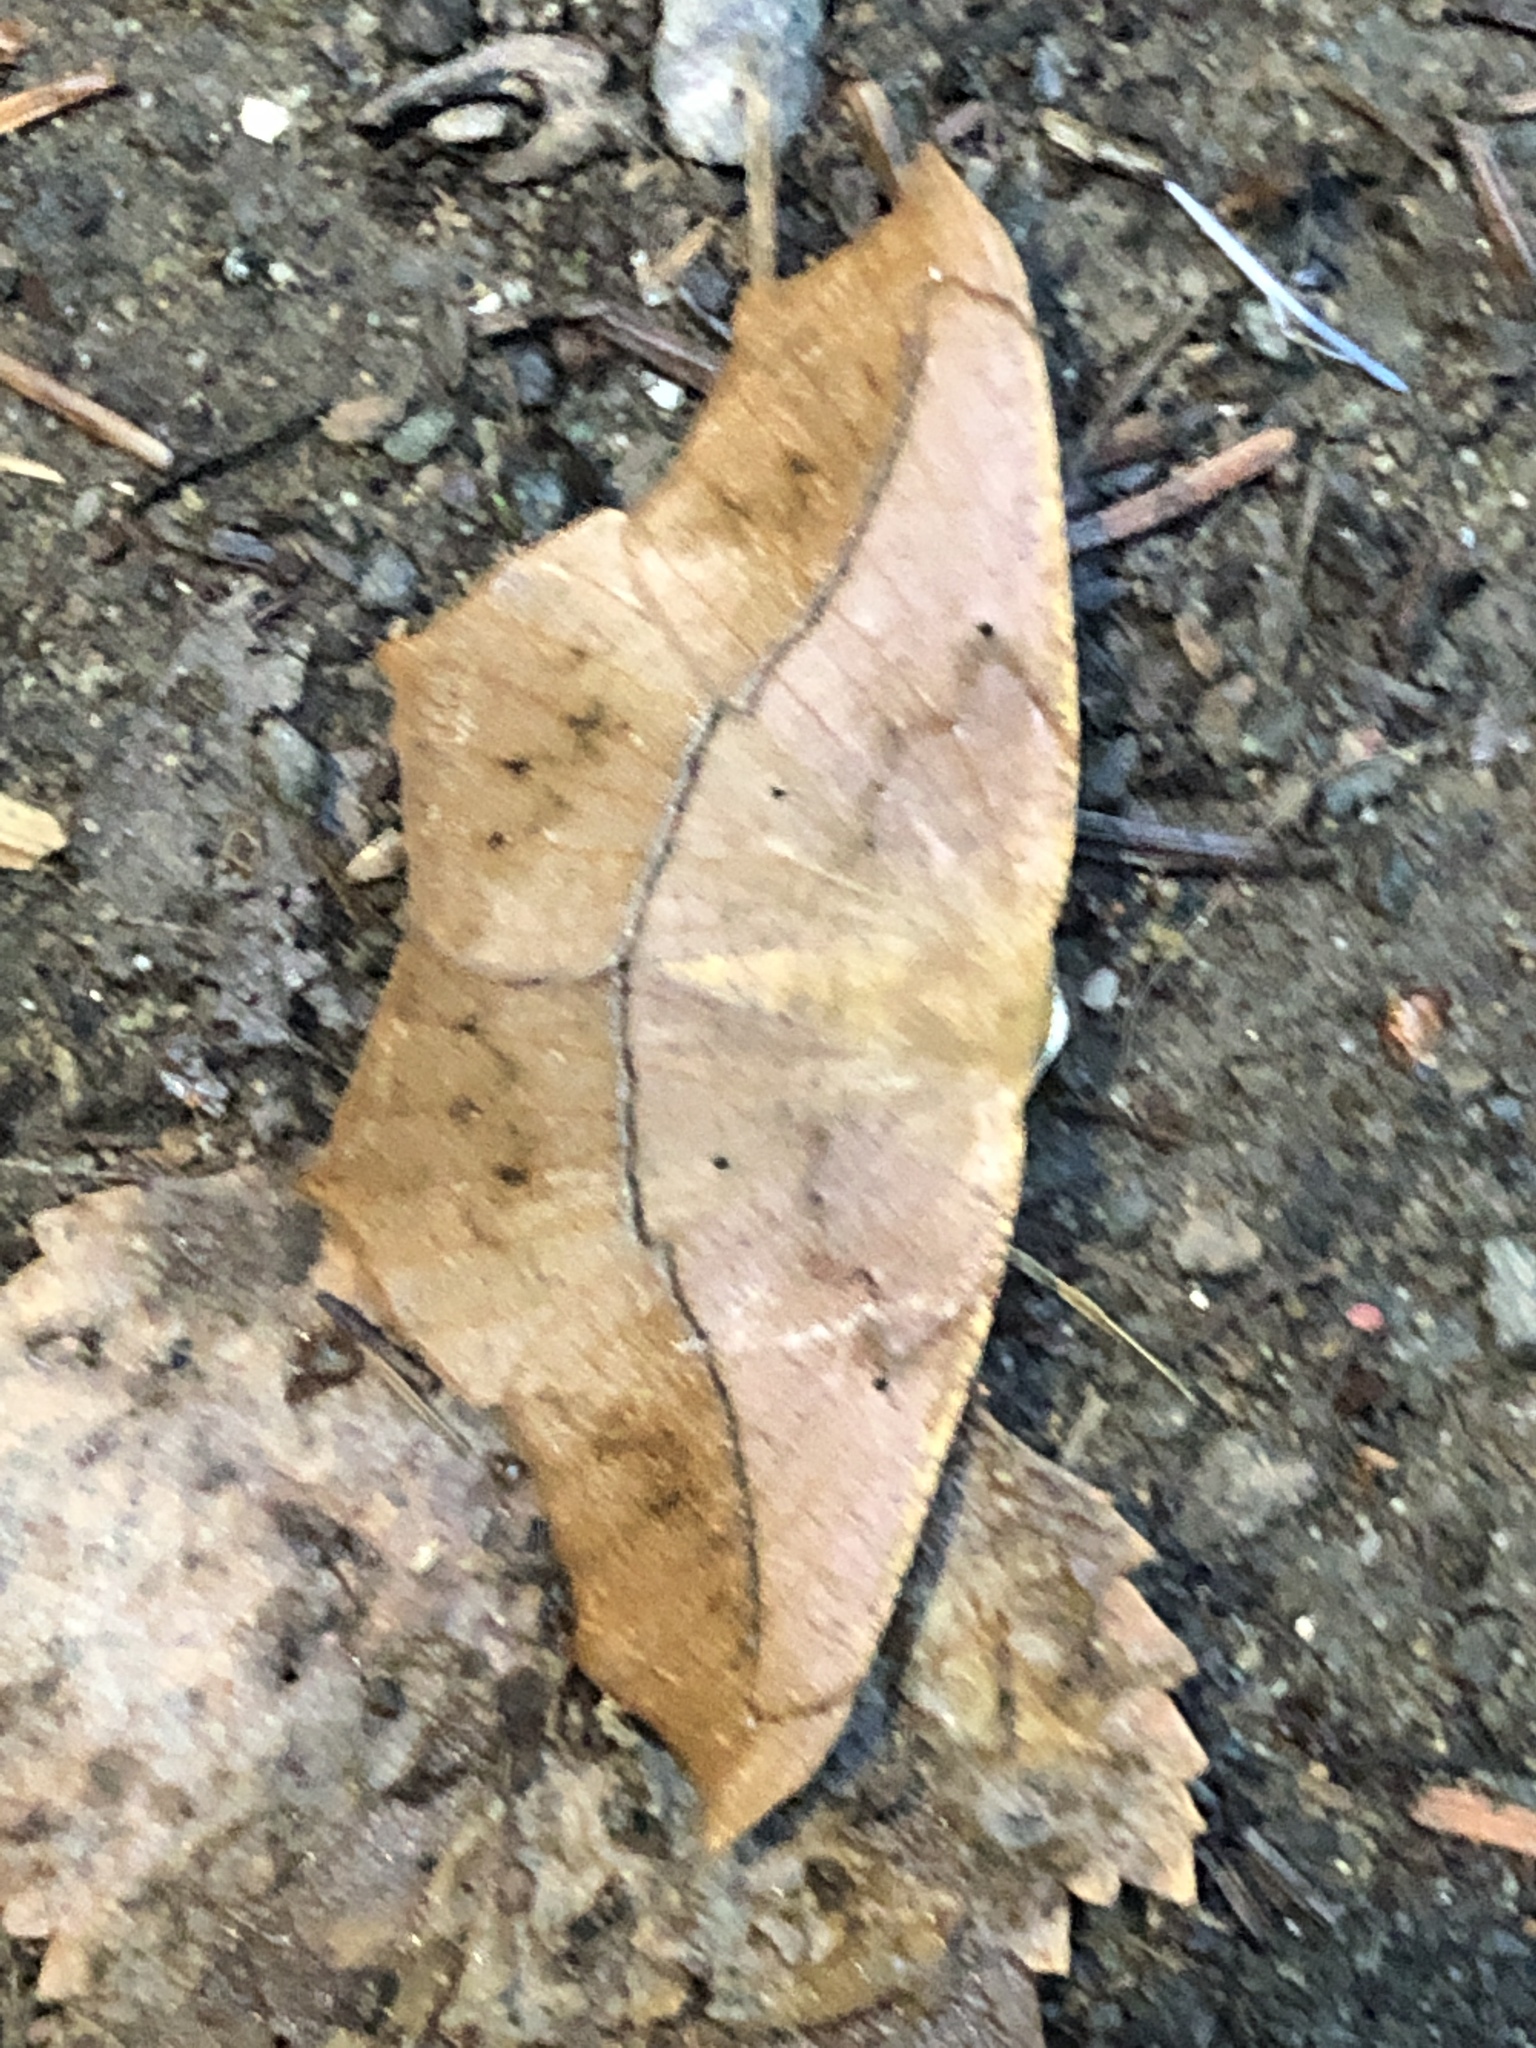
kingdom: Animalia
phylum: Arthropoda
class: Insecta
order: Lepidoptera
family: Geometridae
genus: Prochoerodes
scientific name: Prochoerodes lineola
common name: Large maple spanworm
